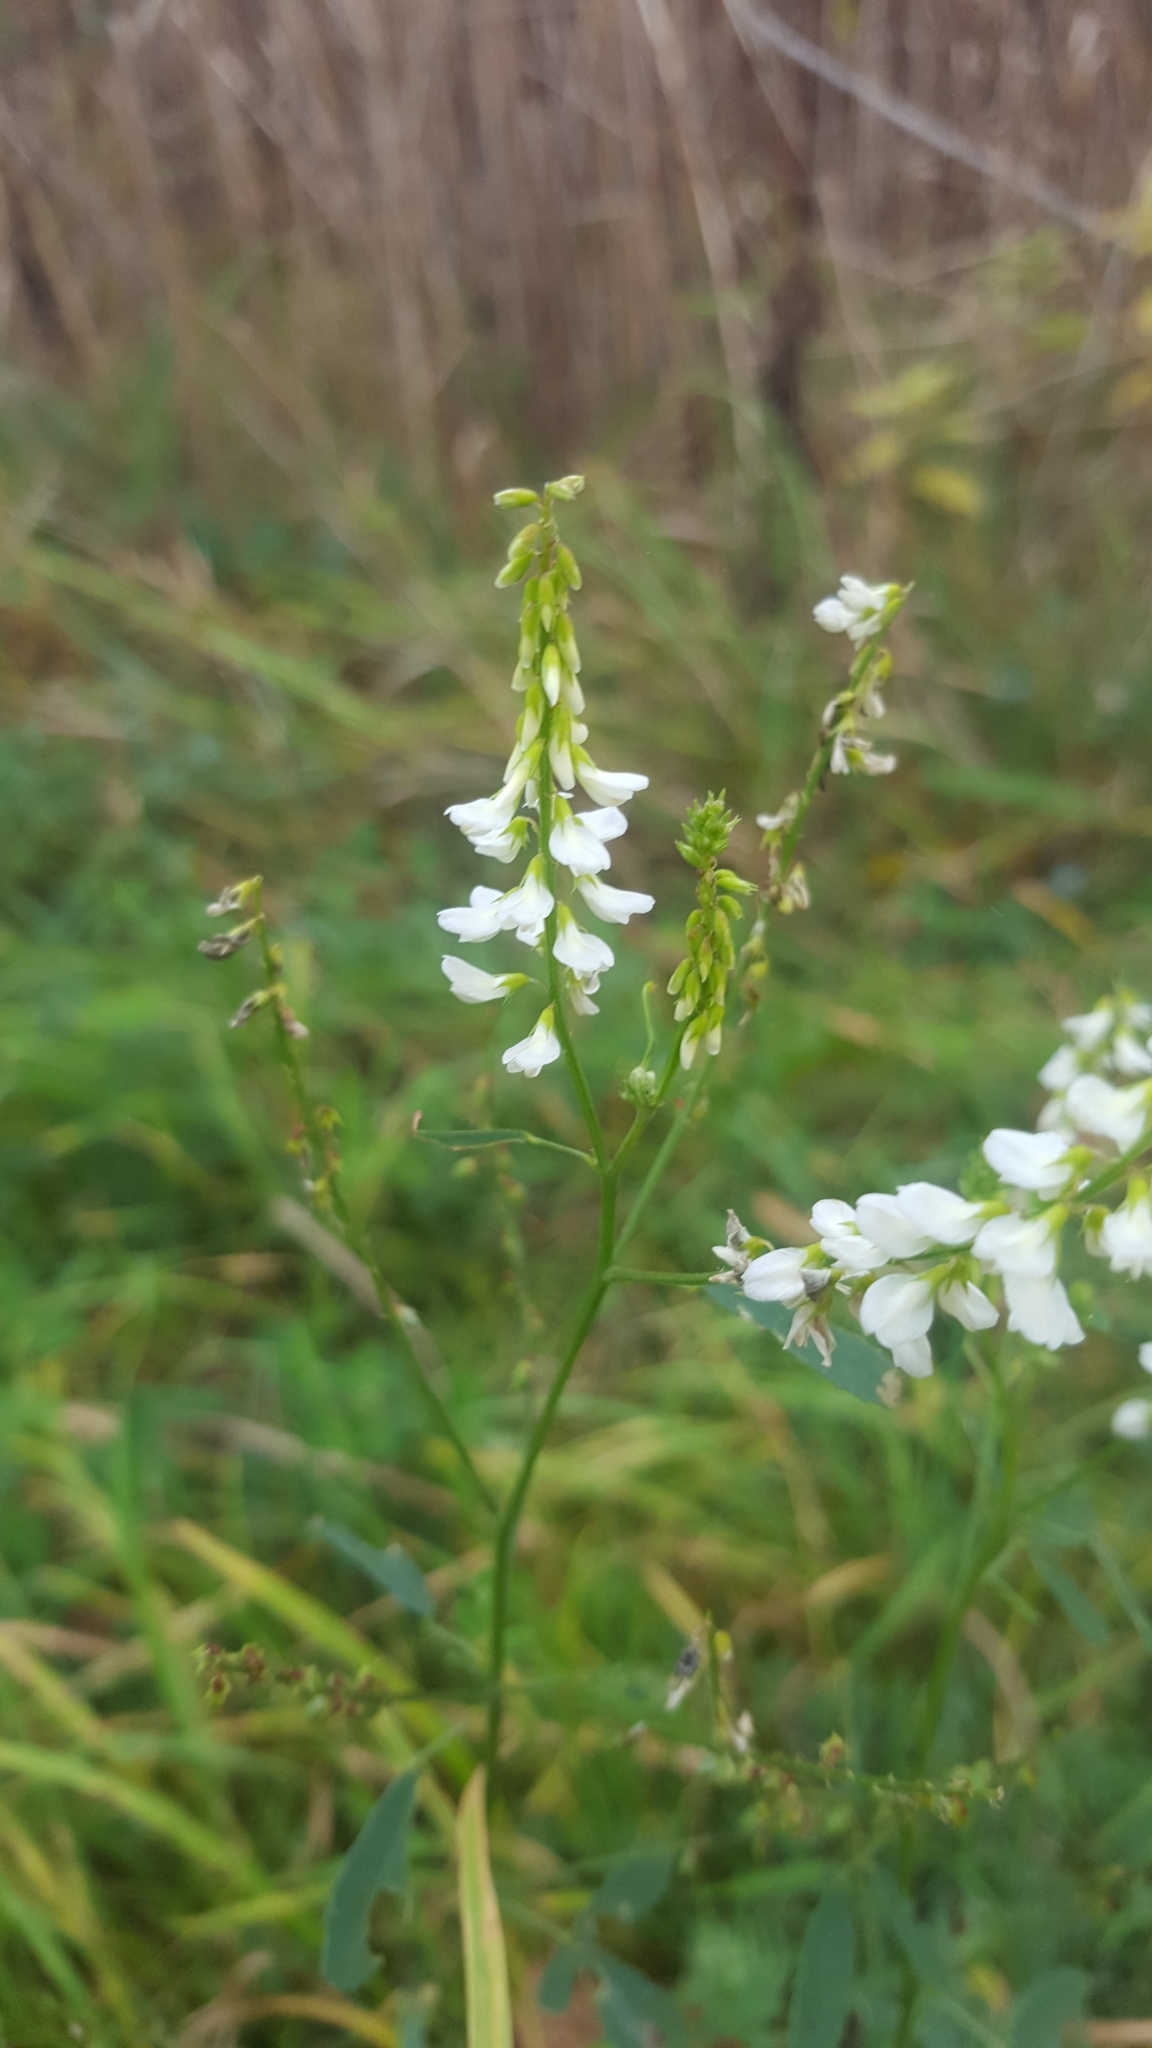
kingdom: Plantae
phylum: Tracheophyta
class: Magnoliopsida
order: Fabales
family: Fabaceae
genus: Melilotus
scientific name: Melilotus albus
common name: White melilot
